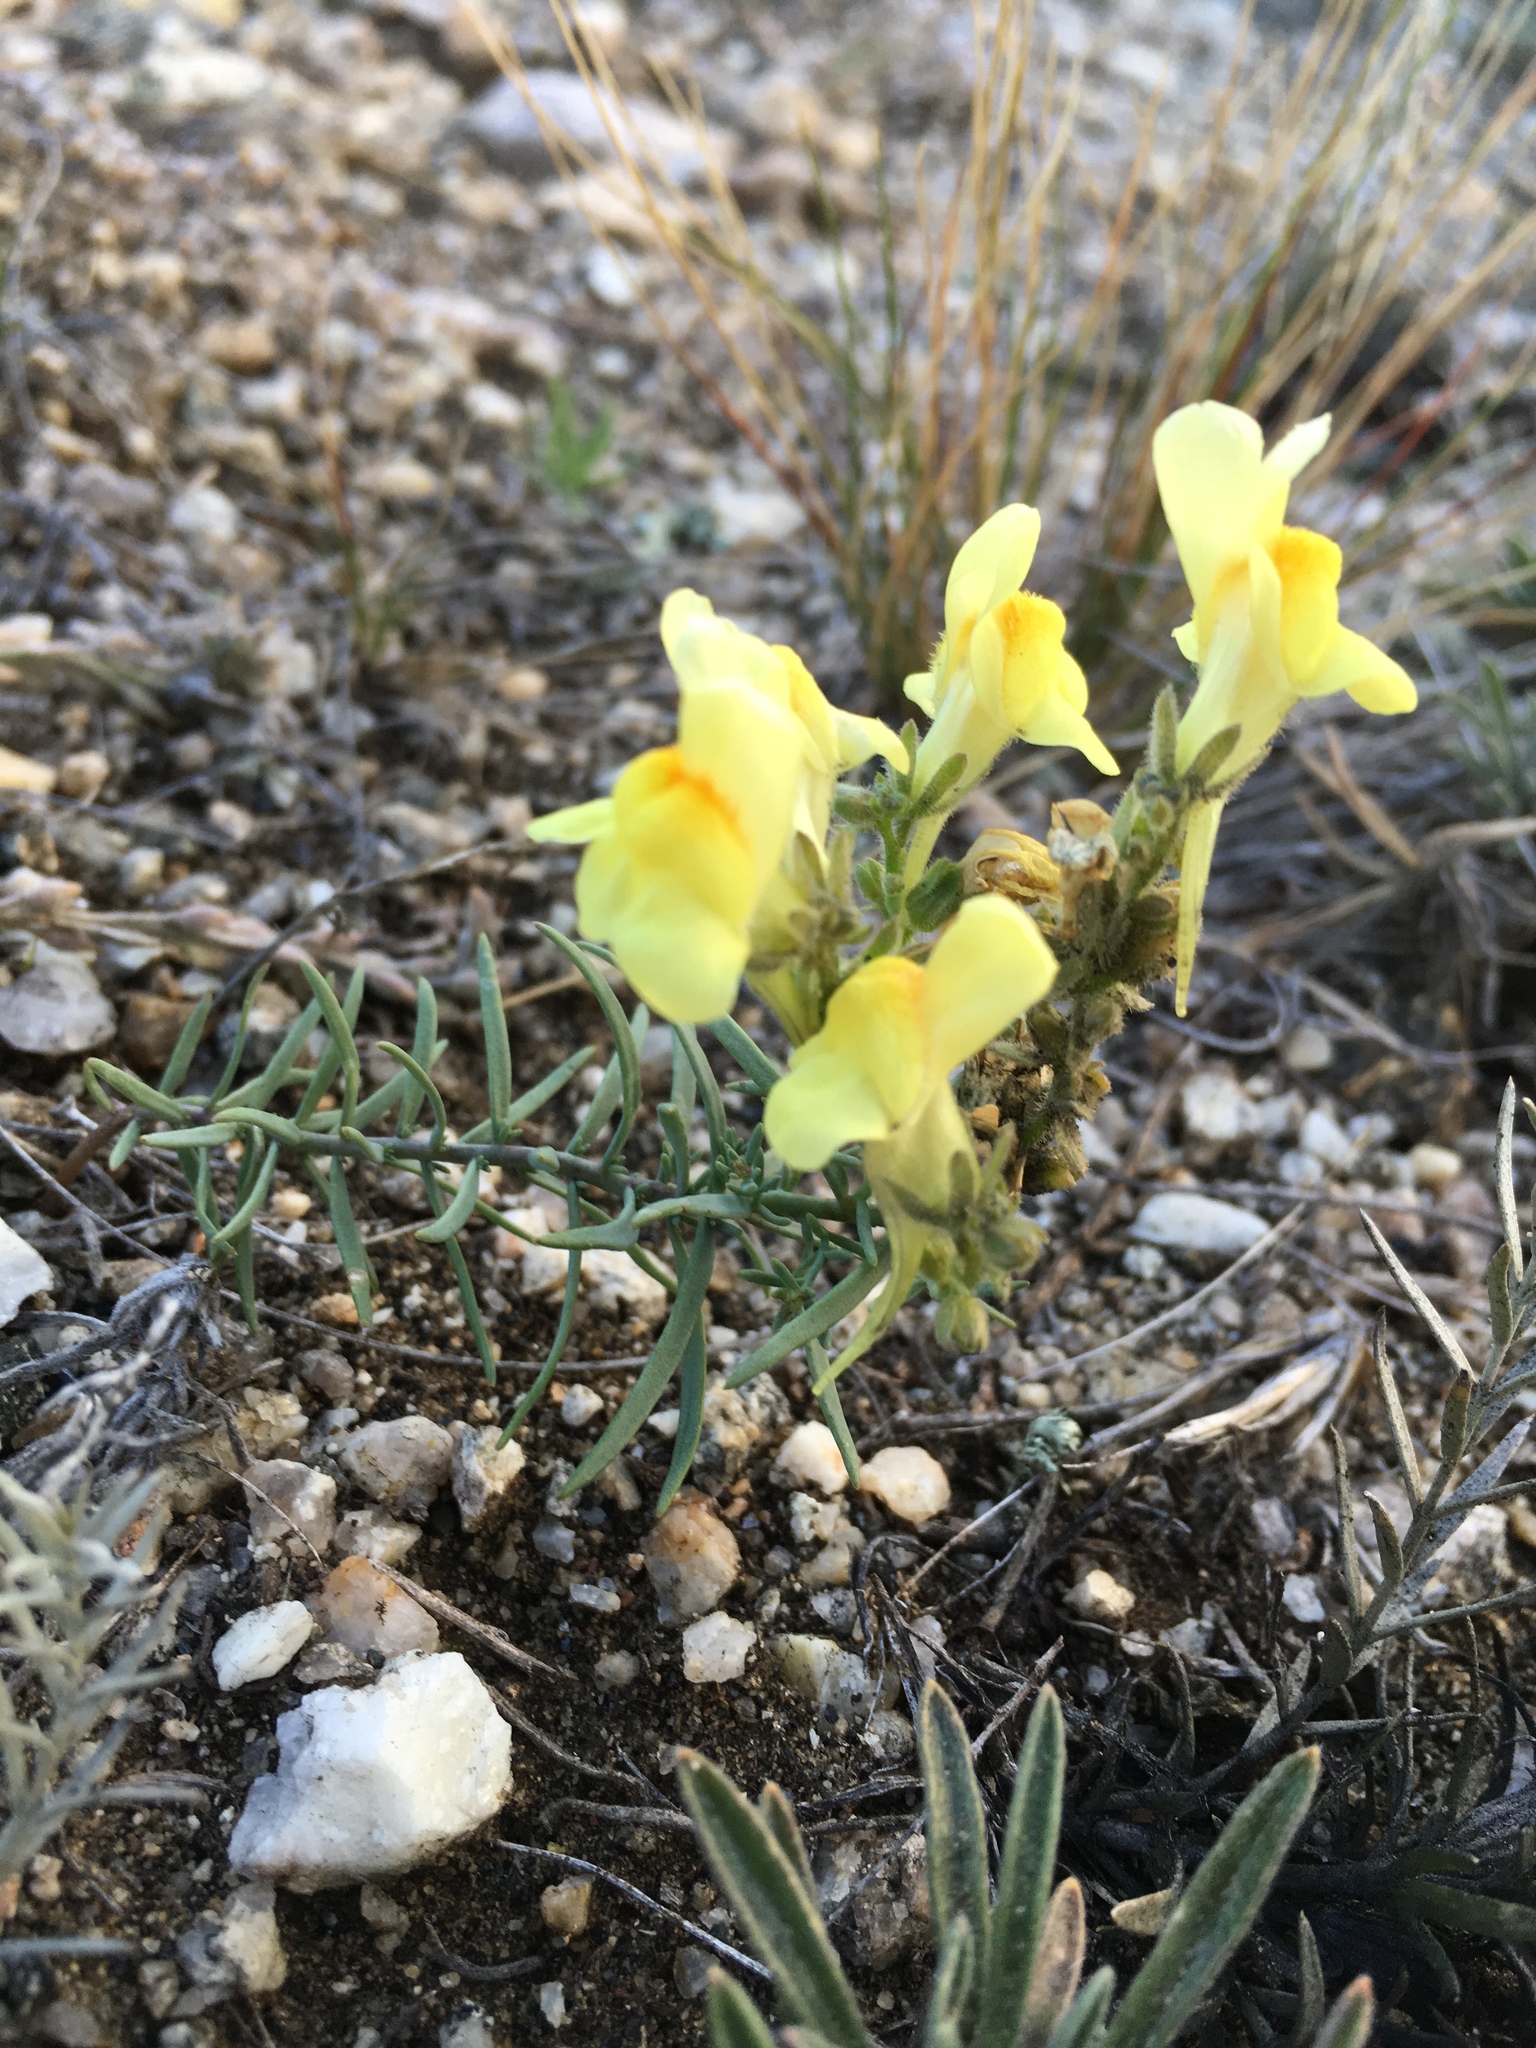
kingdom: Plantae
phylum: Tracheophyta
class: Magnoliopsida
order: Lamiales
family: Plantaginaceae
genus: Linaria
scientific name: Linaria buriatica
